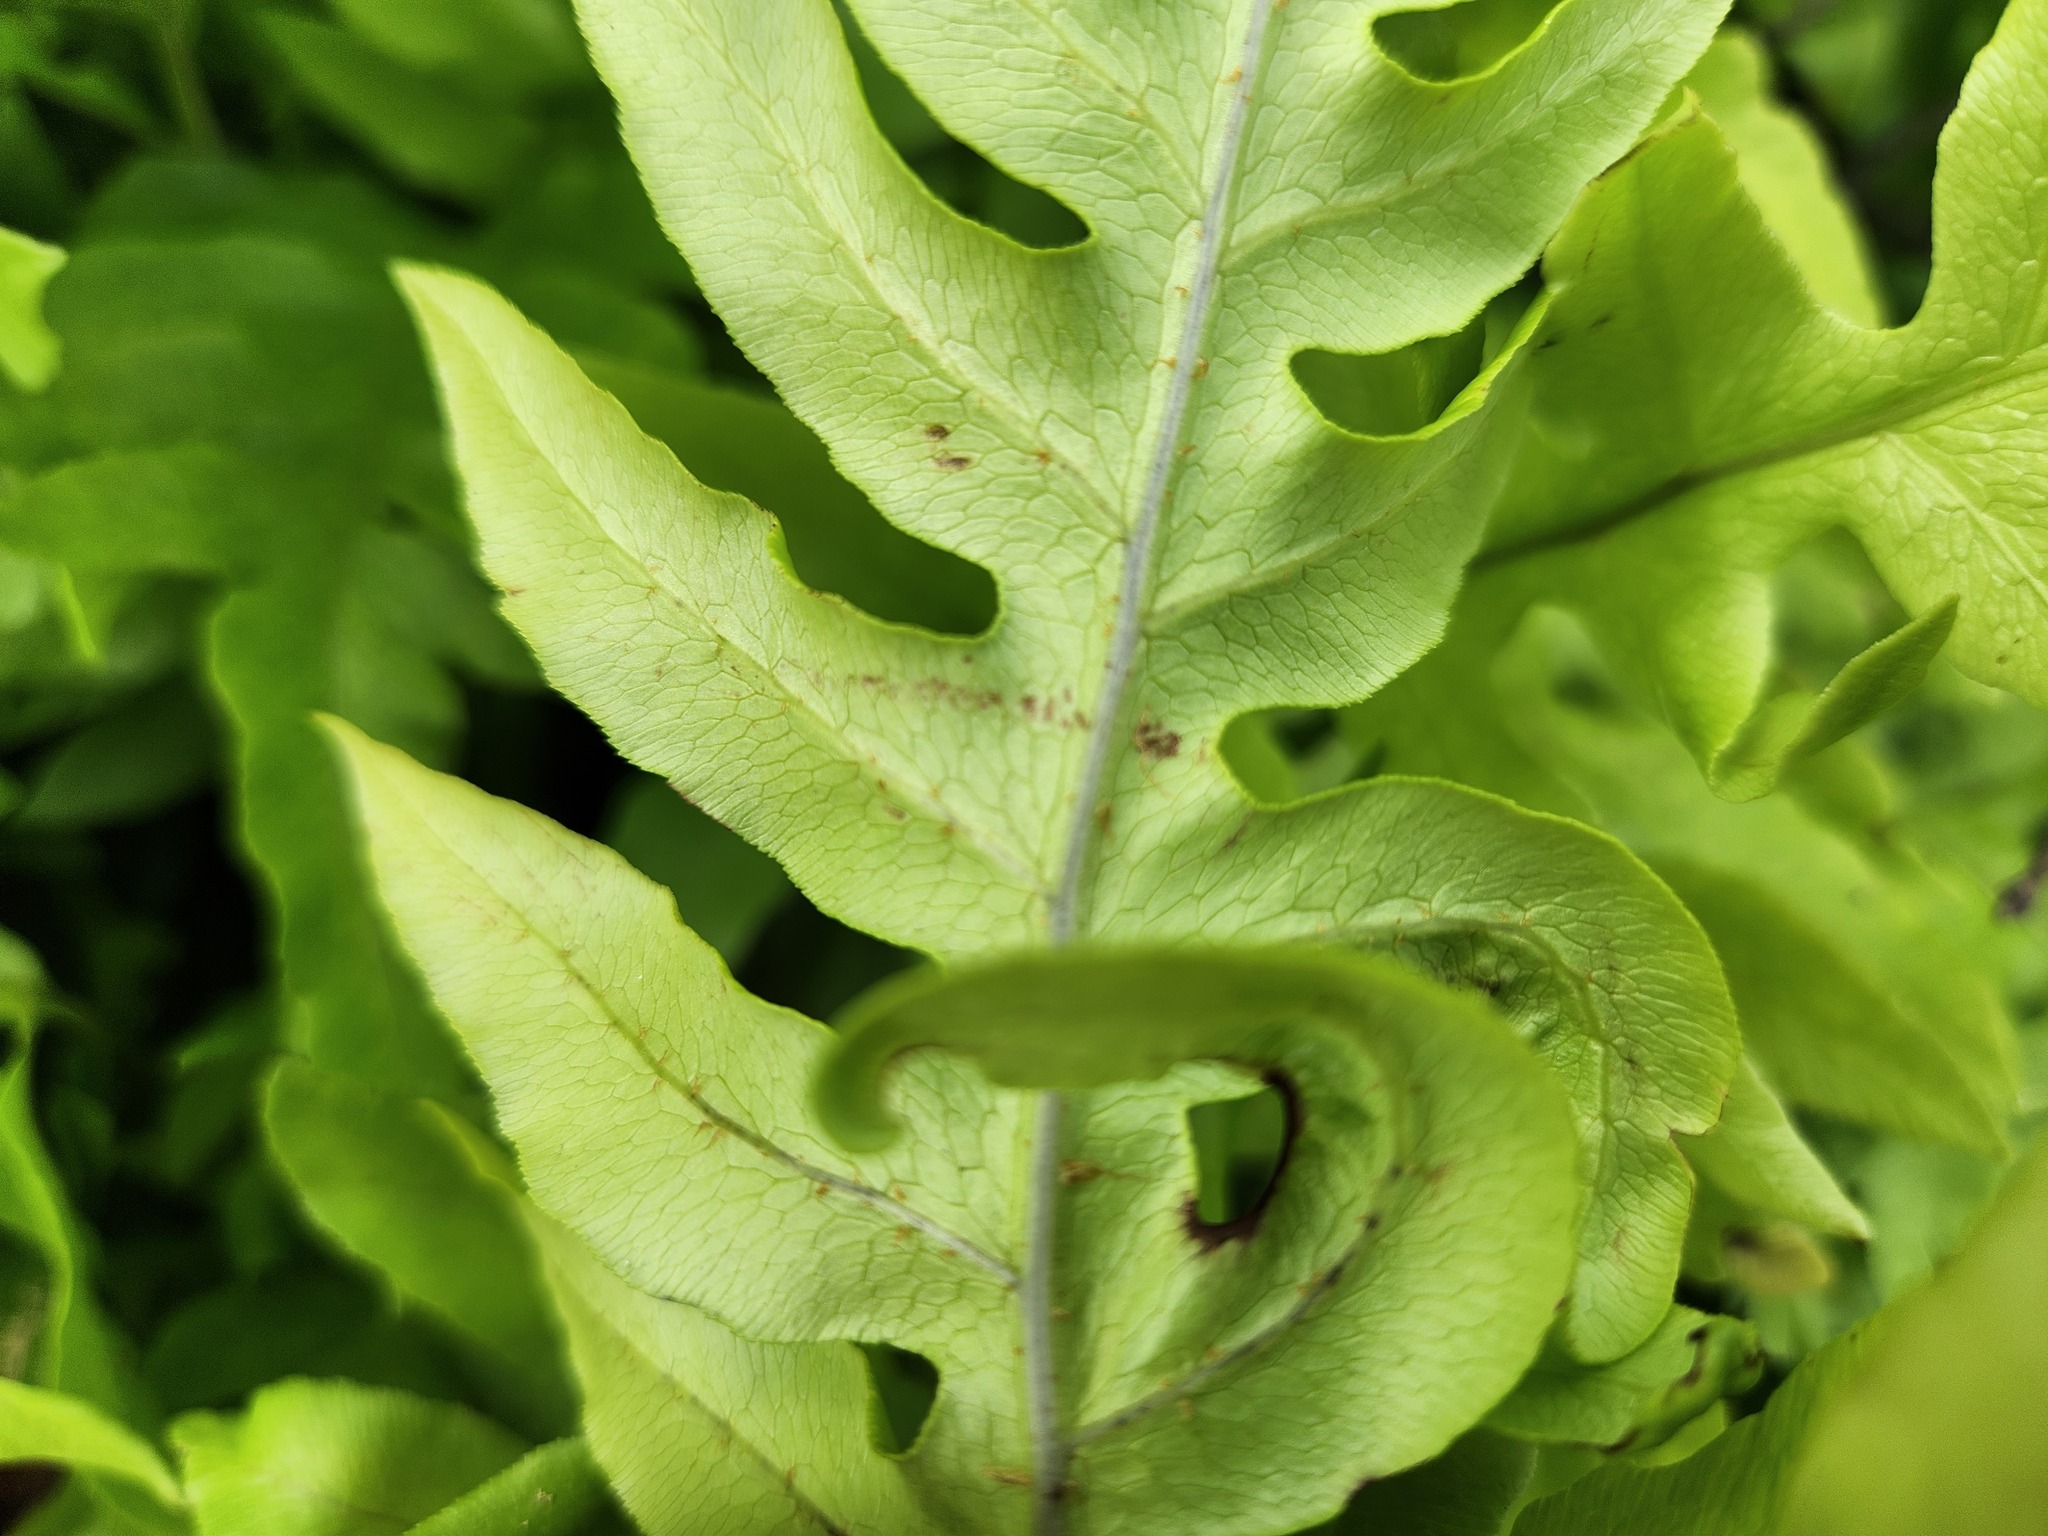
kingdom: Plantae
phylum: Tracheophyta
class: Polypodiopsida
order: Polypodiales
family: Blechnaceae
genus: Lorinseria
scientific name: Lorinseria areolata
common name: Dwarf chain fern
